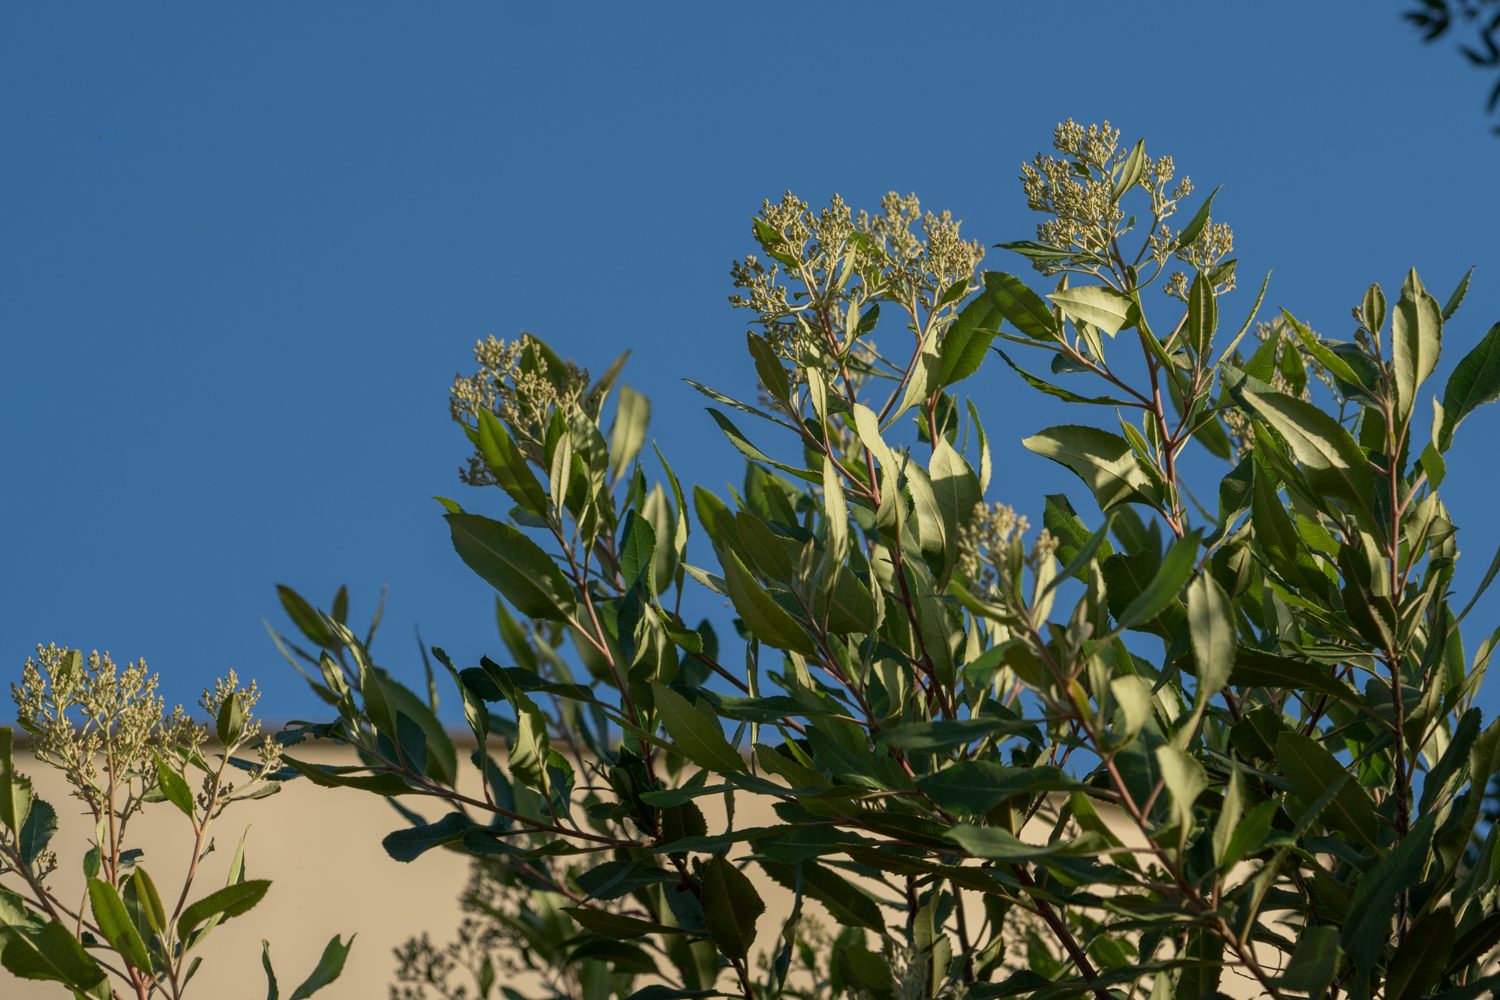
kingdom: Plantae
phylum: Tracheophyta
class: Magnoliopsida
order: Rosales
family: Rosaceae
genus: Heteromeles
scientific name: Heteromeles arbutifolia
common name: California-holly
